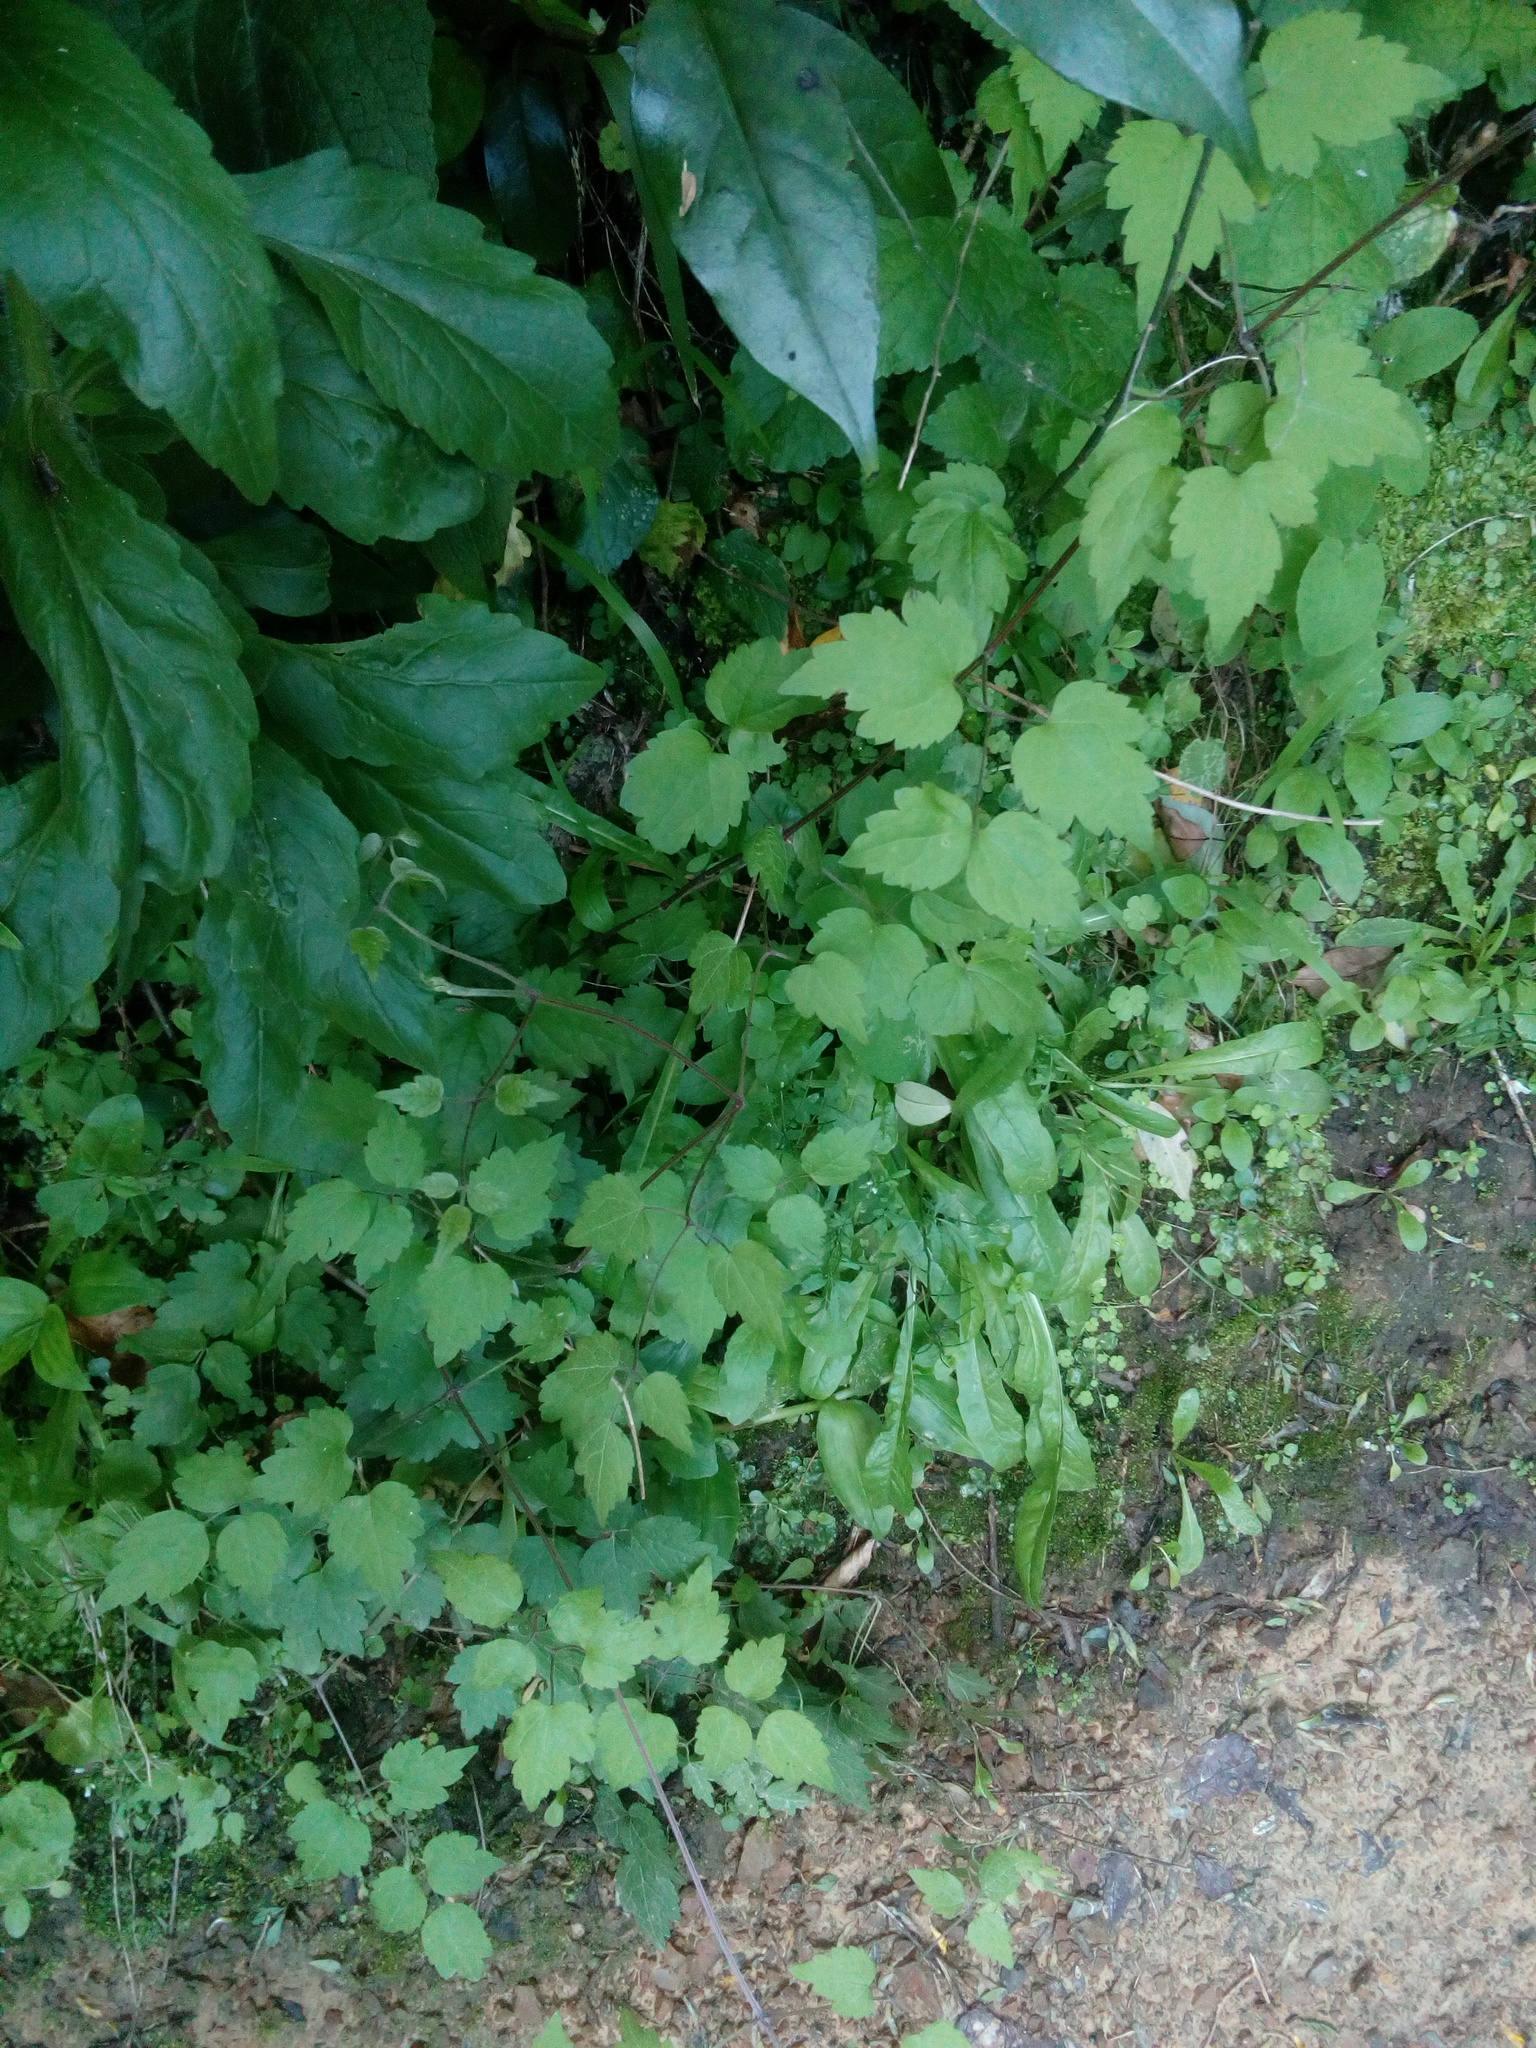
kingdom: Plantae
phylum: Tracheophyta
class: Magnoliopsida
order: Ranunculales
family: Ranunculaceae
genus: Clematis
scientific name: Clematis vitalba
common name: Evergreen clematis
